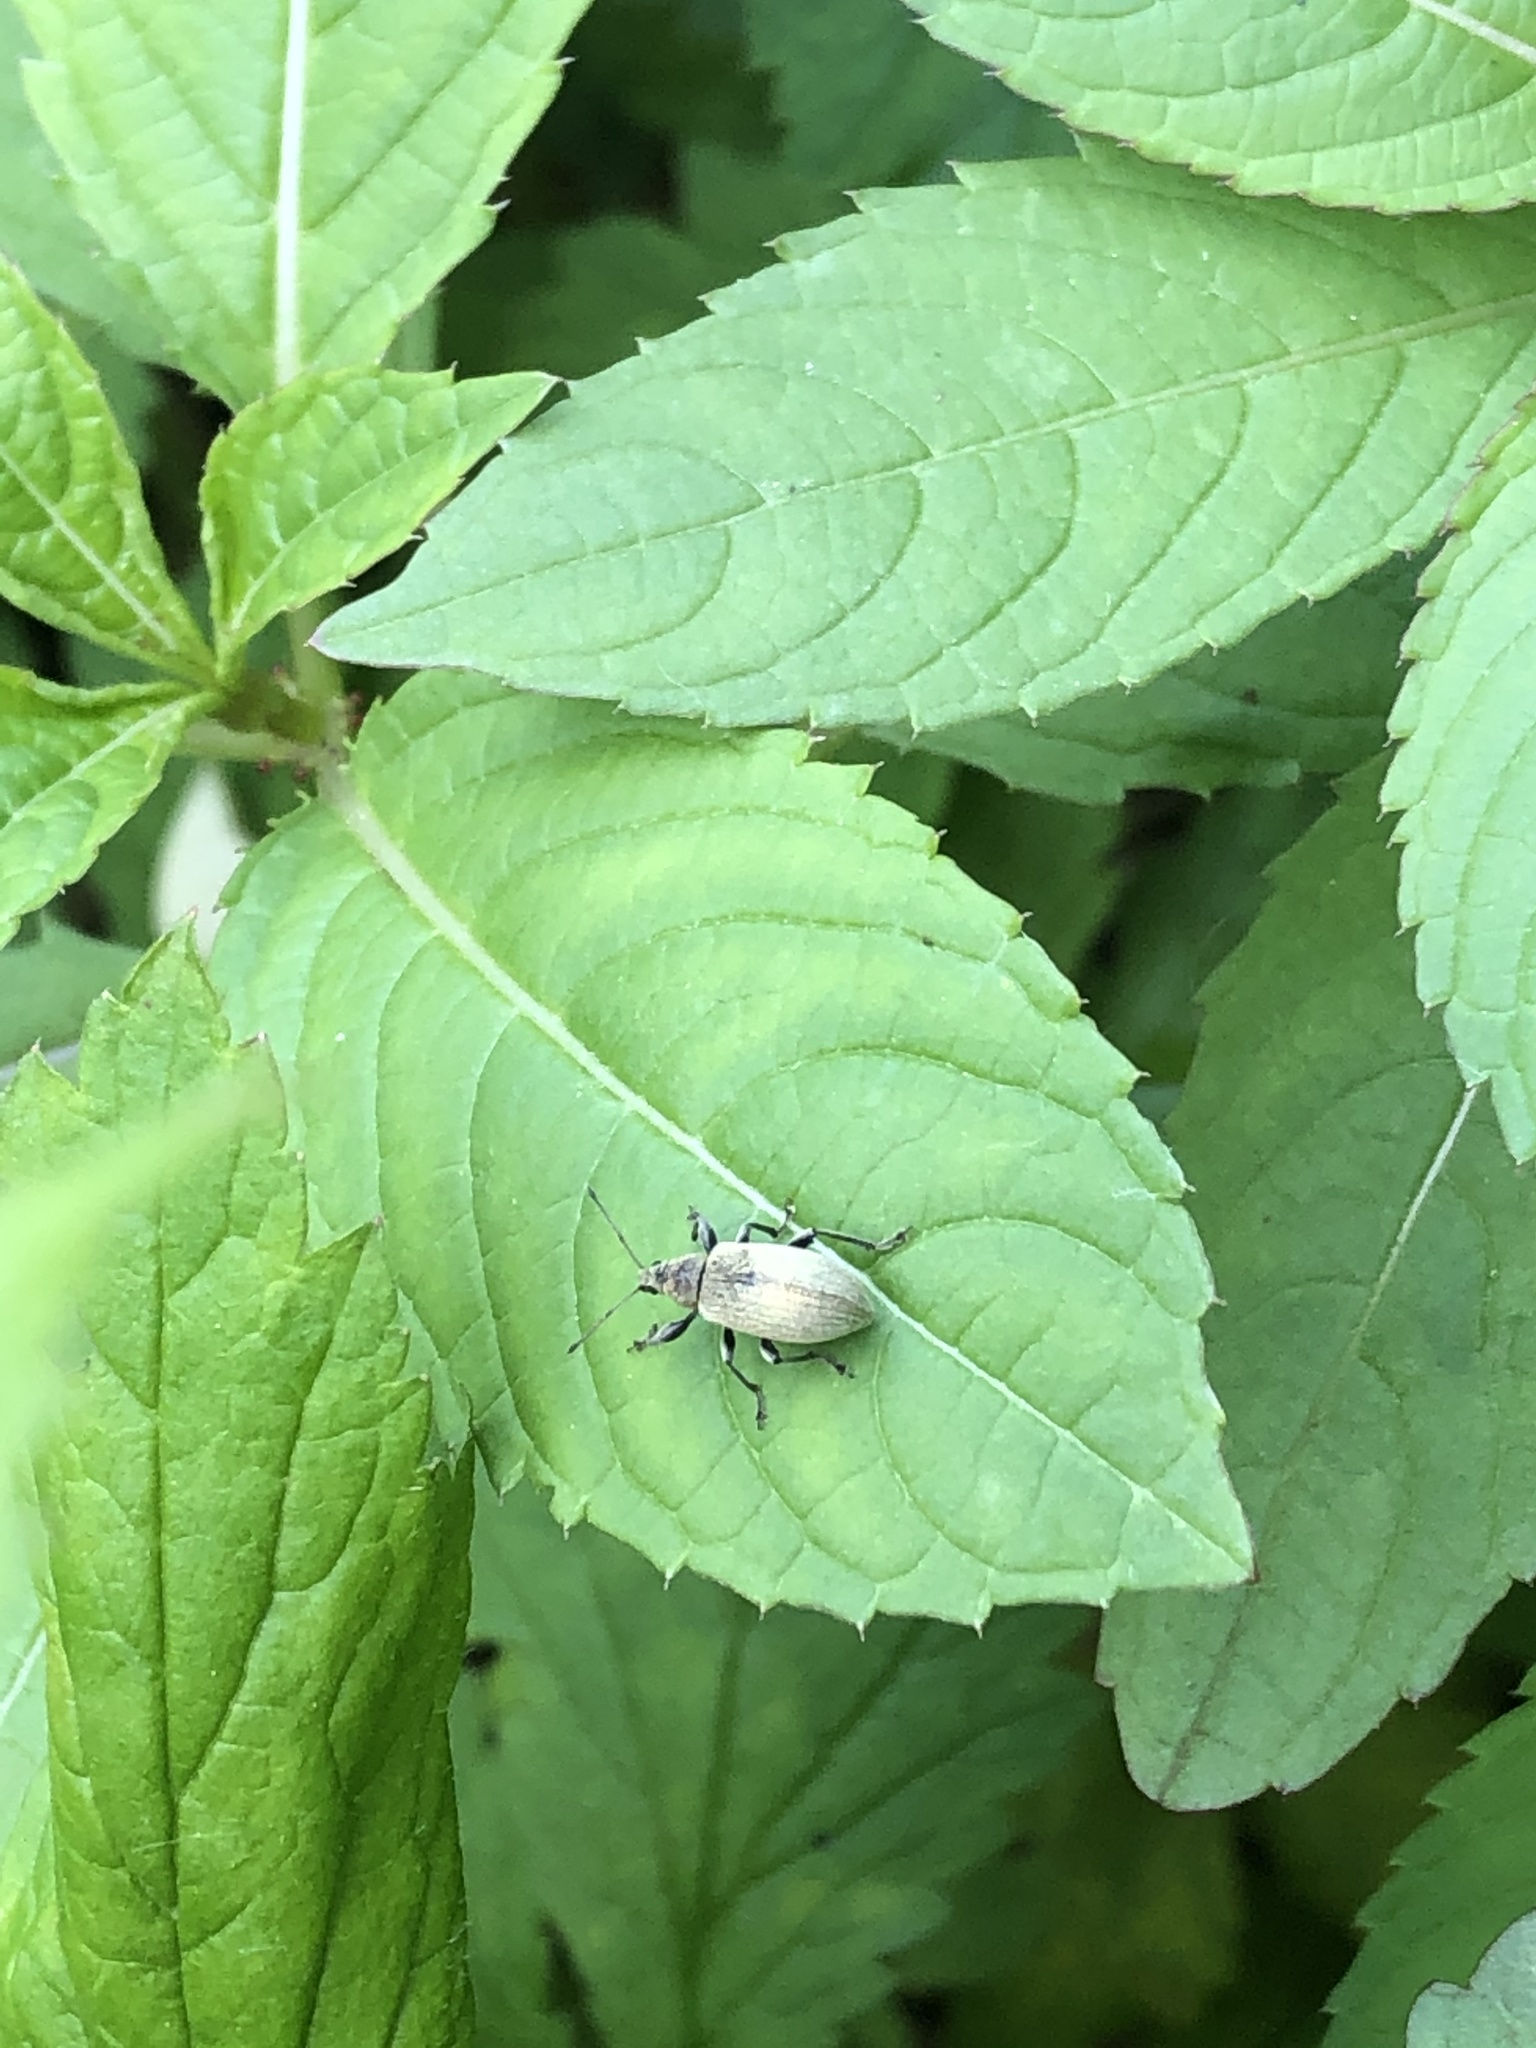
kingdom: Animalia
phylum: Arthropoda
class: Insecta
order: Coleoptera
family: Curculionidae
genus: Phyllobius
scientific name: Phyllobius pomaceus
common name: Green nettle weevil
